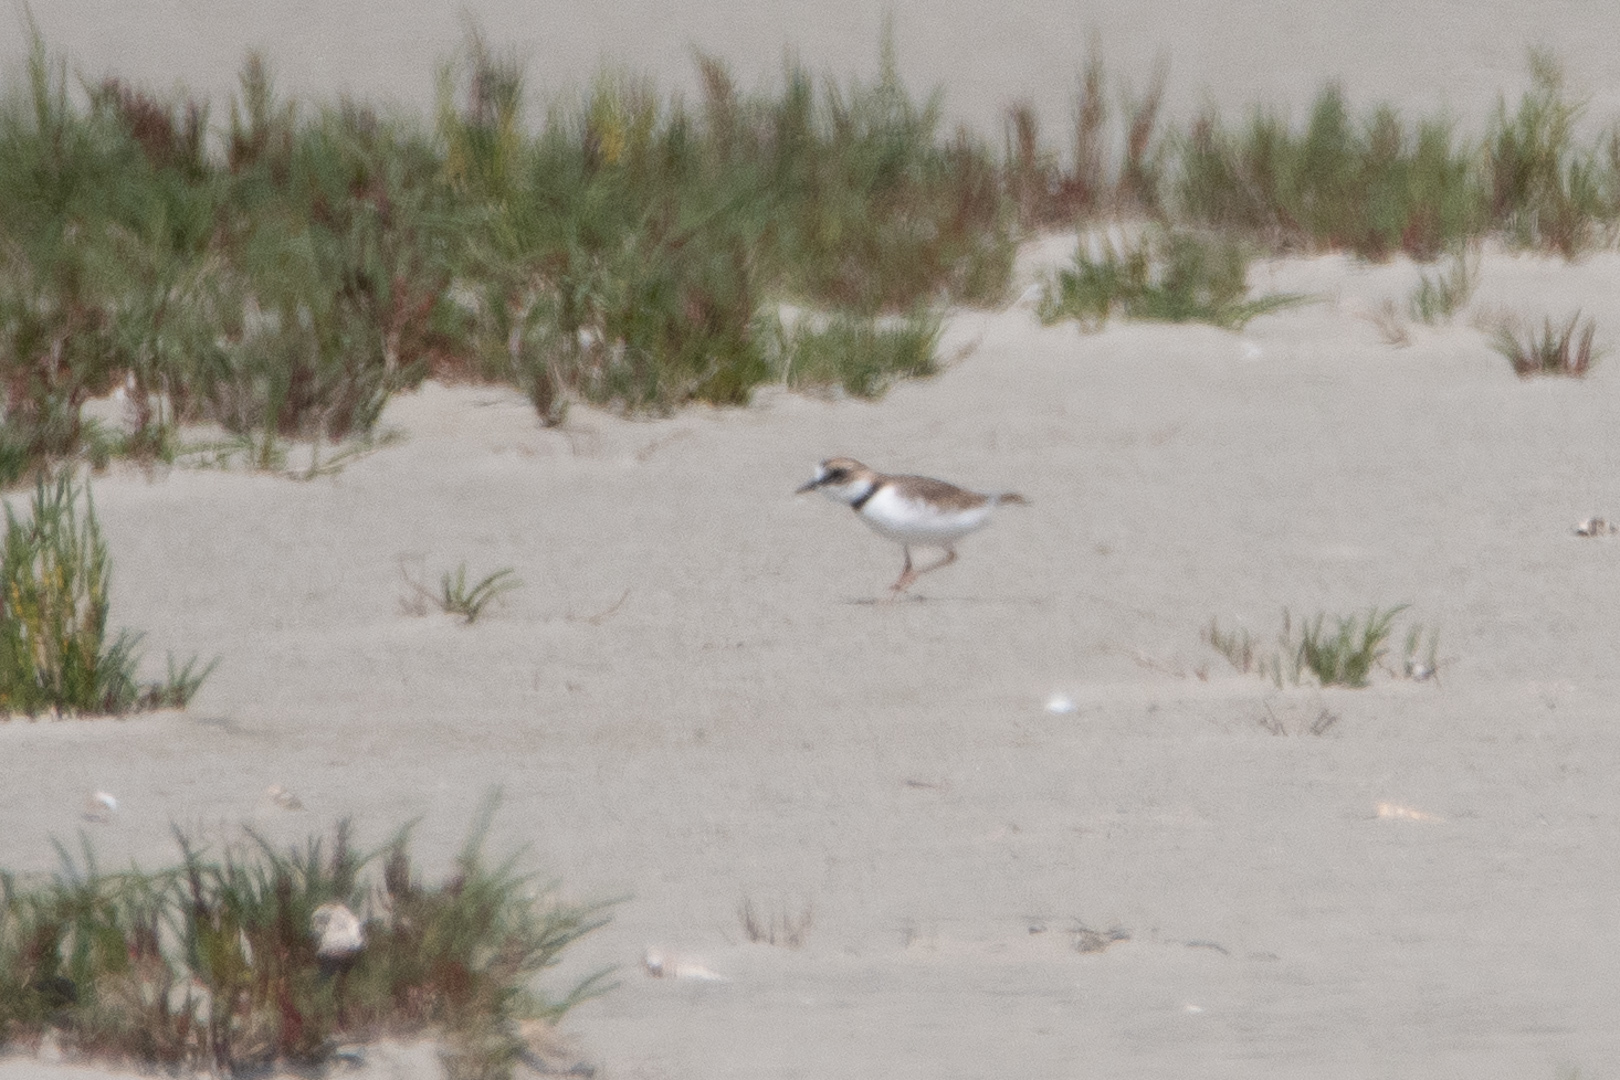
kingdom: Animalia
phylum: Chordata
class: Aves
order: Charadriiformes
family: Charadriidae
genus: Anarhynchus
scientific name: Anarhynchus
